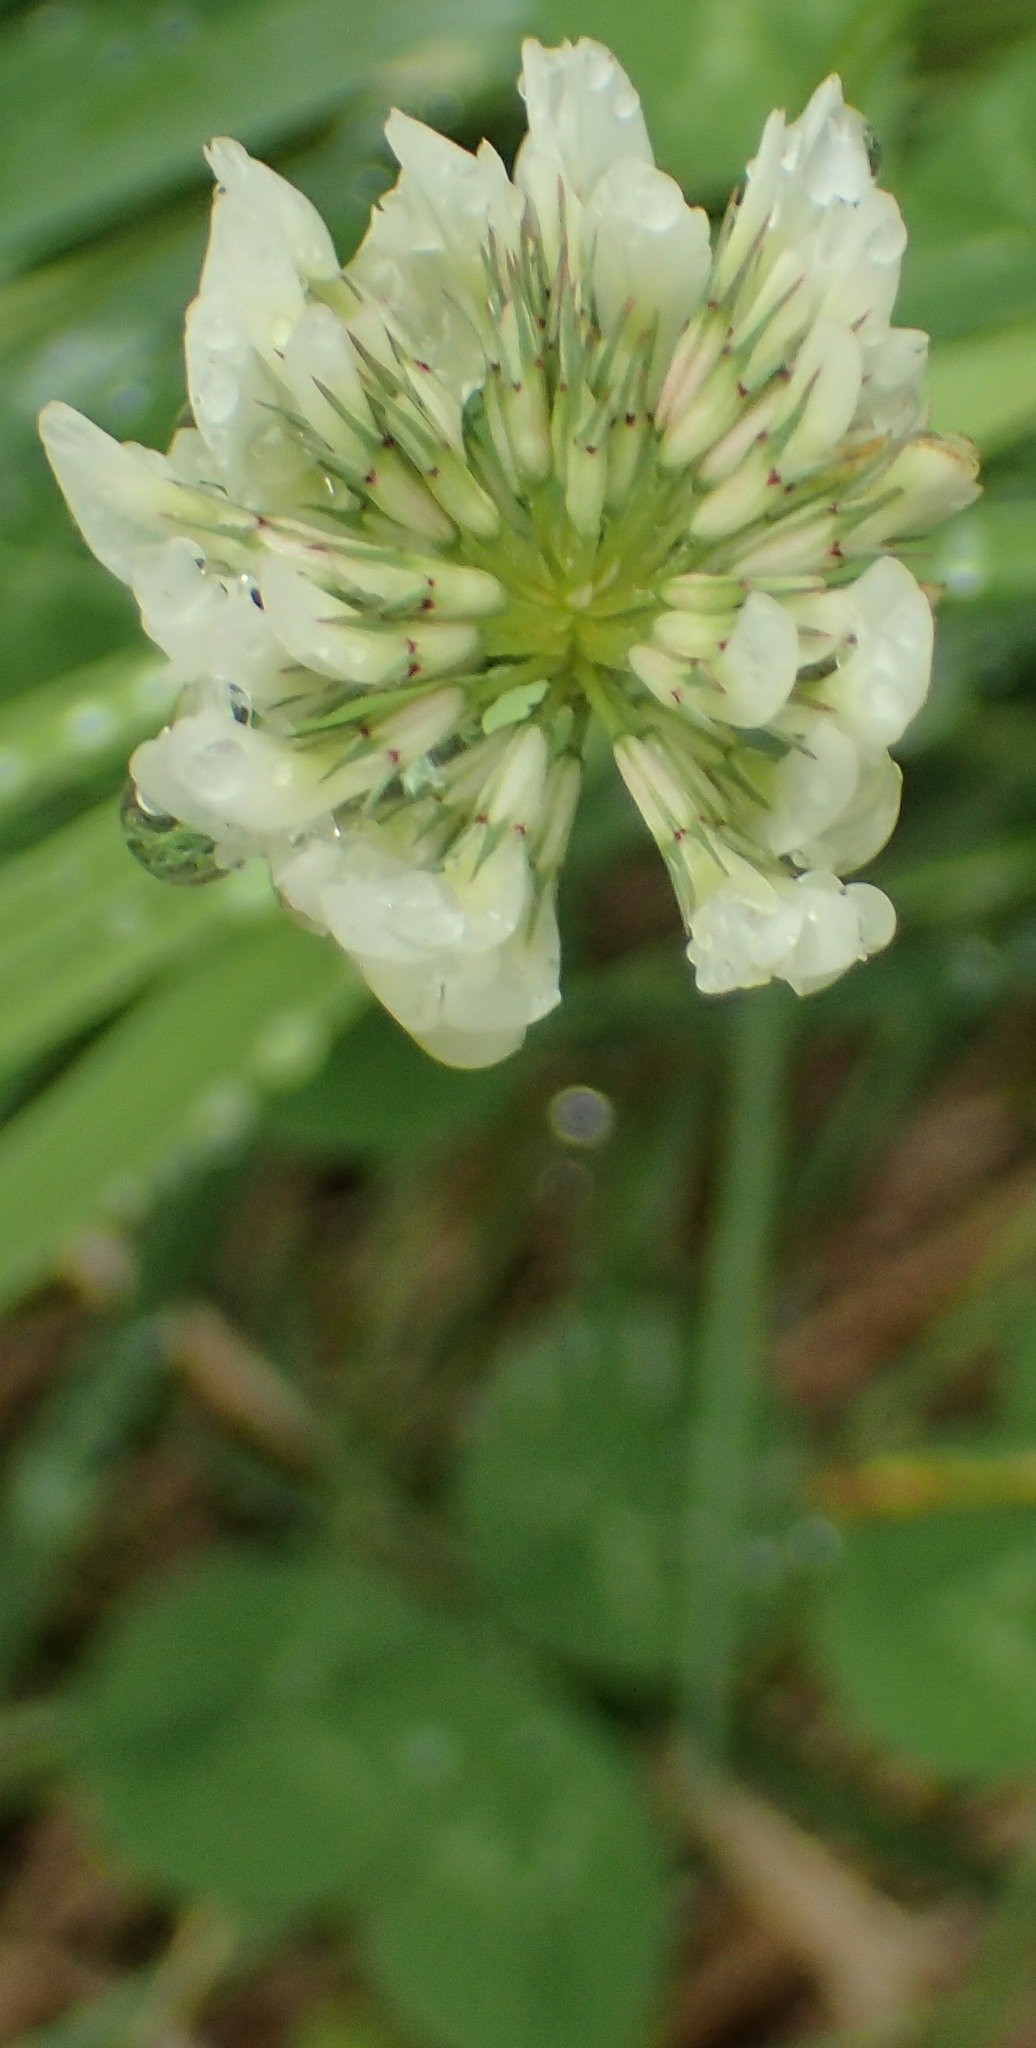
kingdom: Plantae
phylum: Tracheophyta
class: Magnoliopsida
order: Fabales
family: Fabaceae
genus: Trifolium
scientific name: Trifolium repens
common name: White clover
